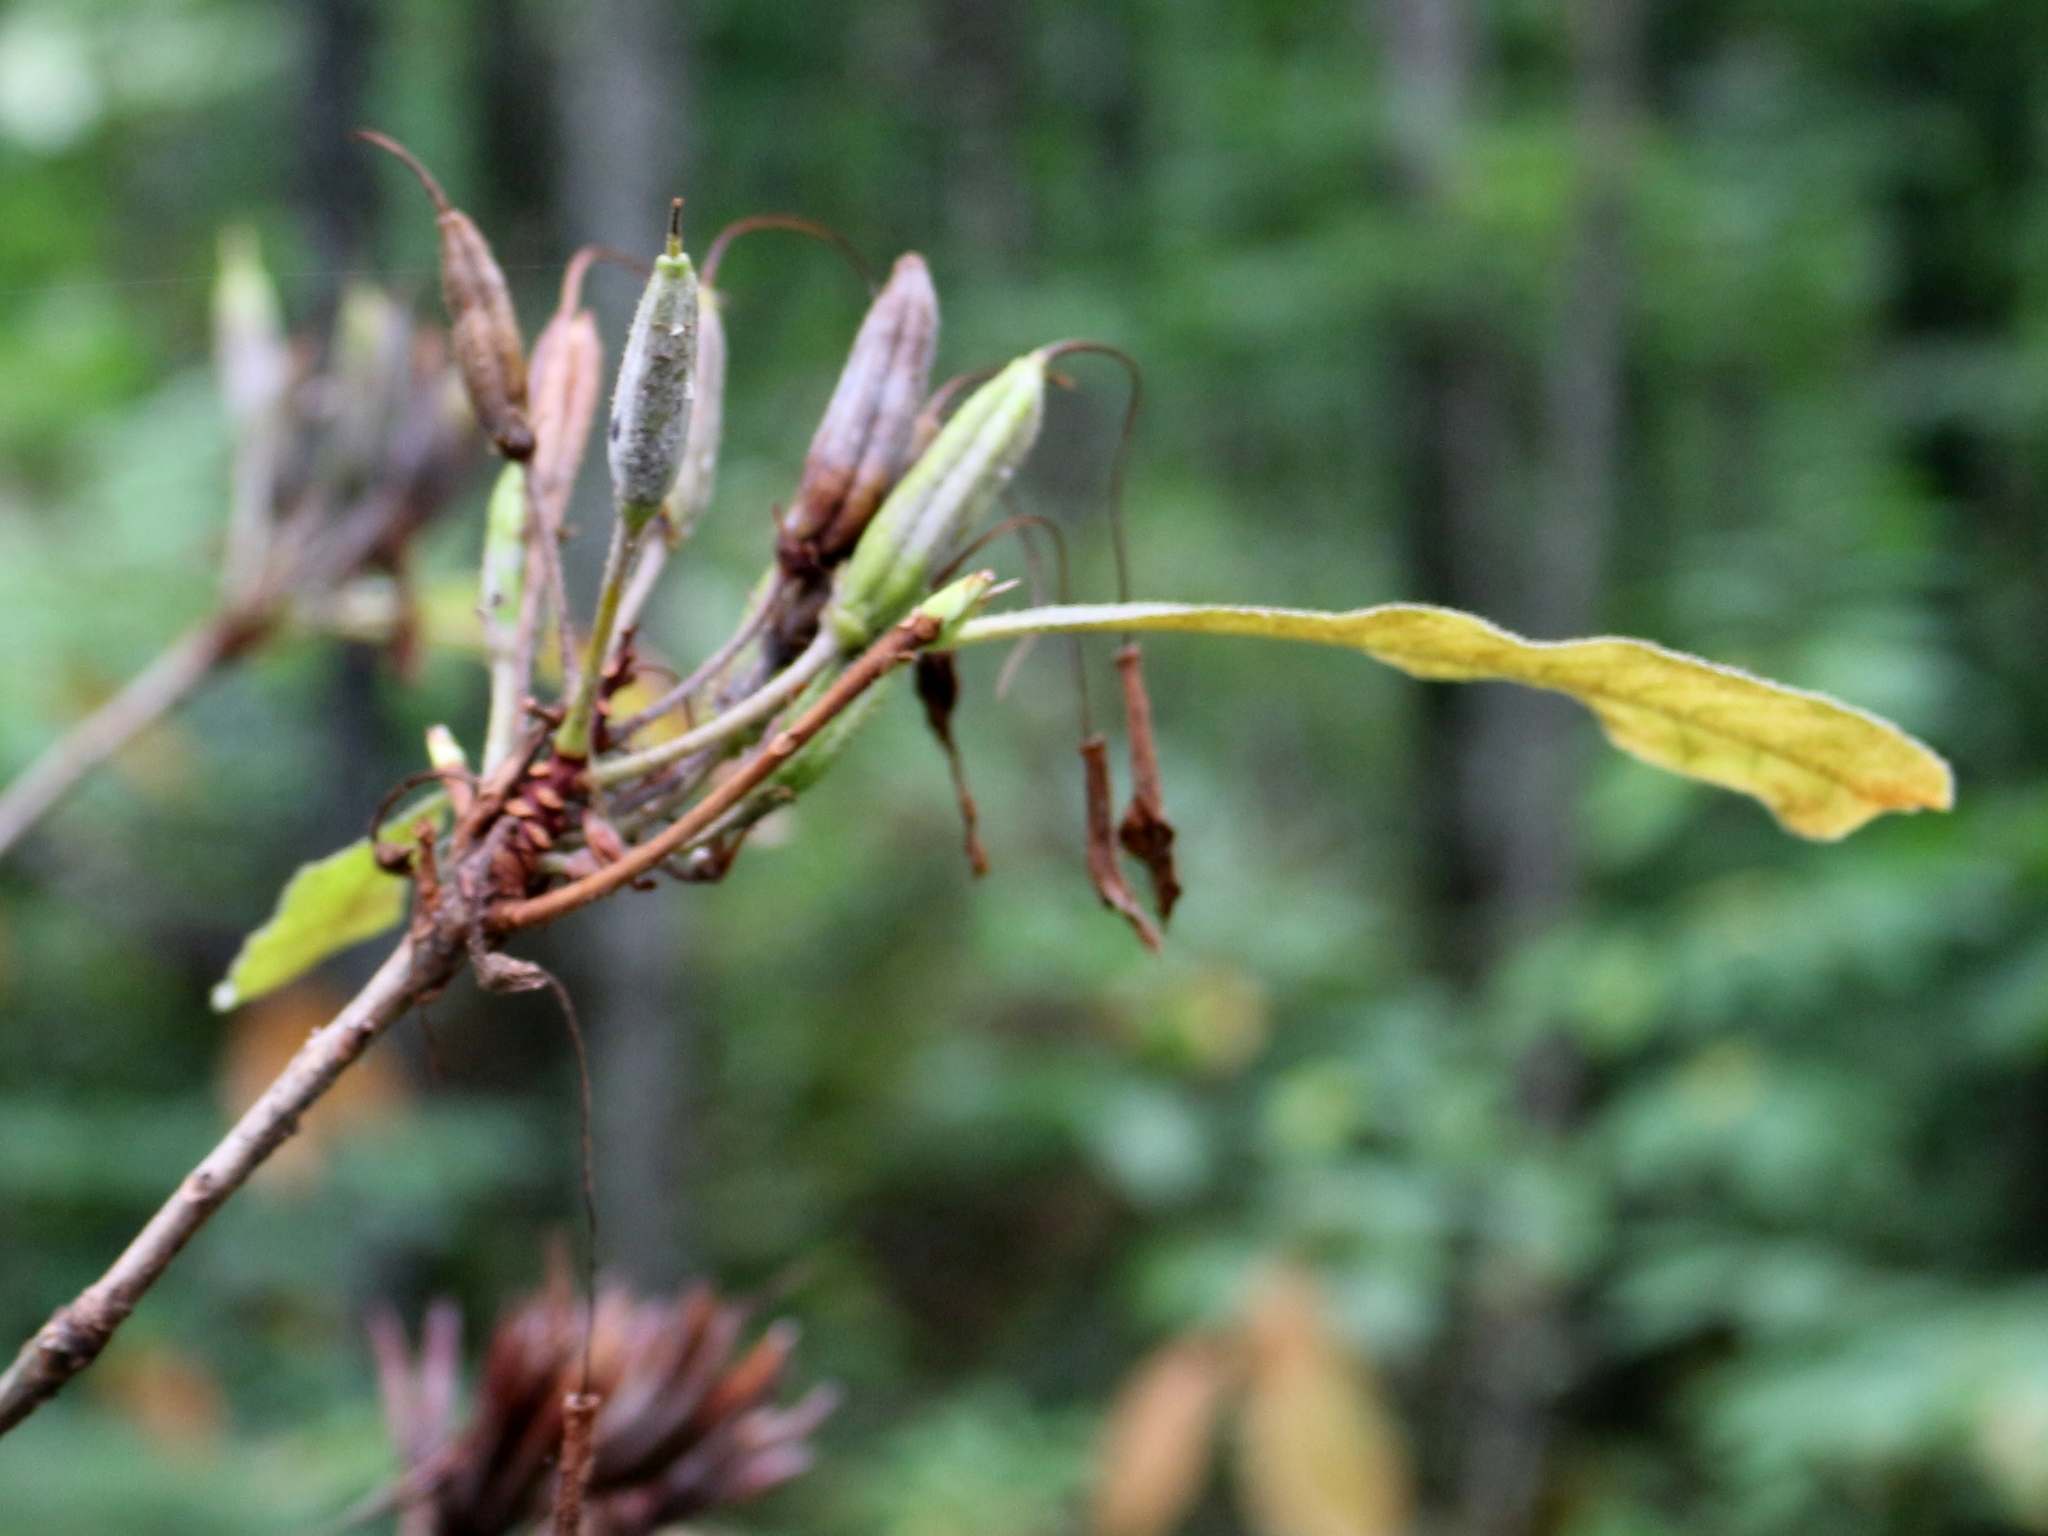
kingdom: Plantae
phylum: Tracheophyta
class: Magnoliopsida
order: Ericales
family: Ericaceae
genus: Rhododendron
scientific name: Rhododendron luteum
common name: Yellow azalea
